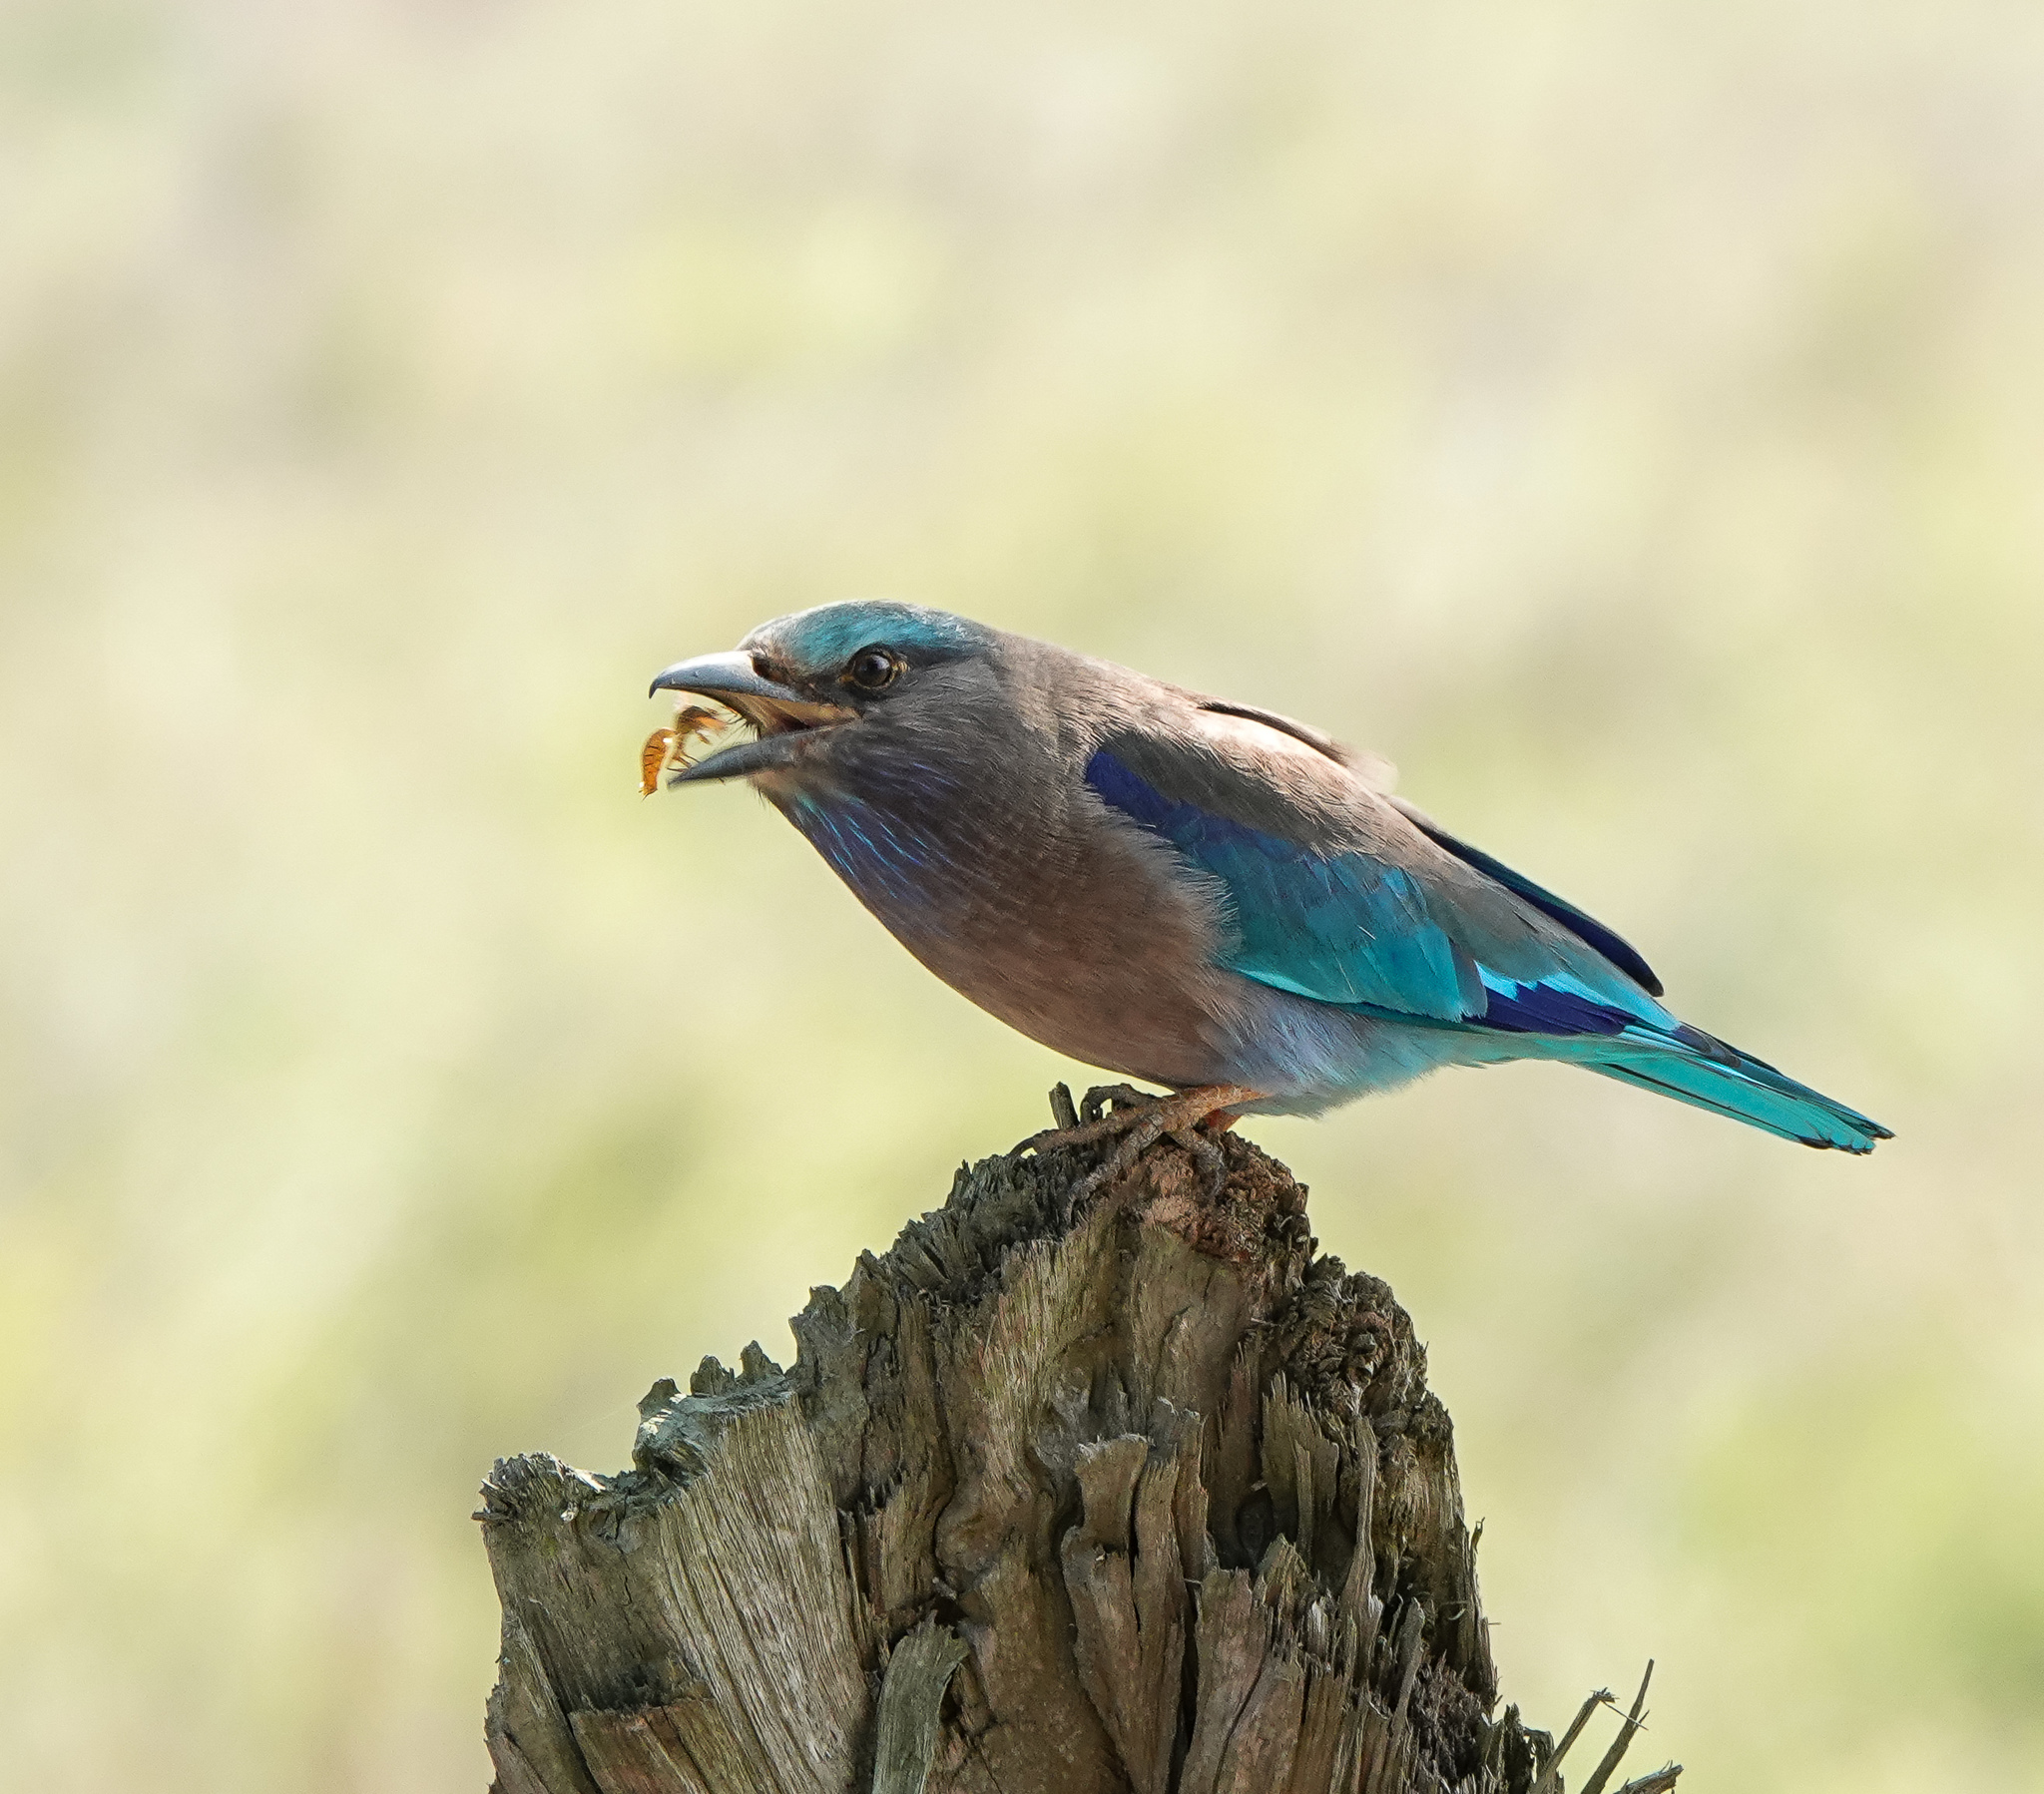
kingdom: Animalia
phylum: Chordata
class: Aves
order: Coraciiformes
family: Coraciidae
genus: Coracias
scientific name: Coracias affinis
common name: Indochinese roller
